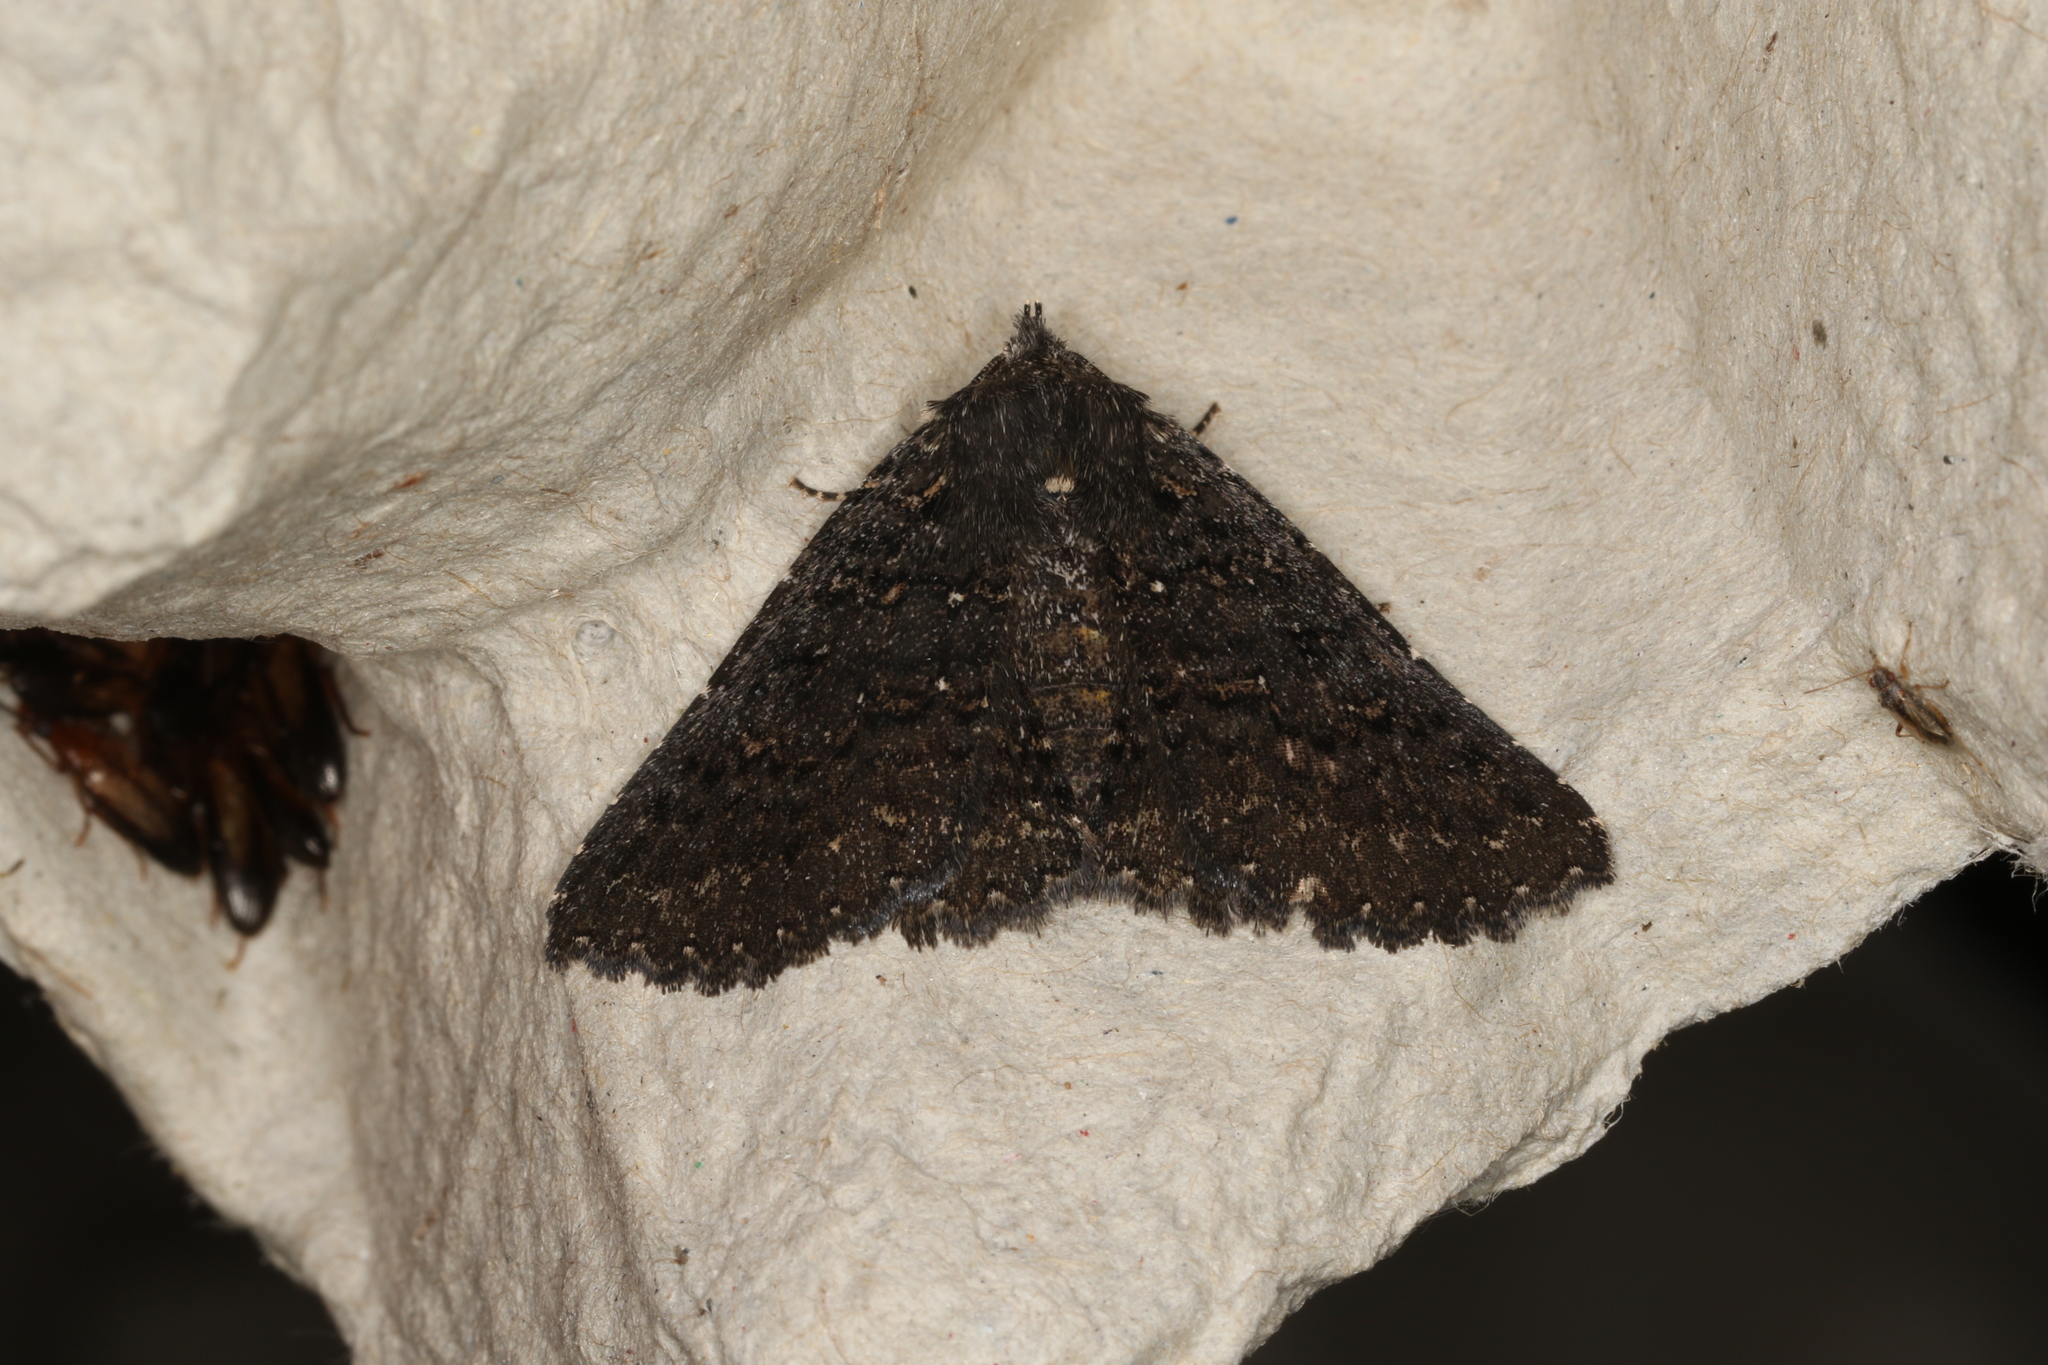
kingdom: Animalia
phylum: Arthropoda
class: Insecta
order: Lepidoptera
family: Erebidae
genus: Praxis
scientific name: Praxis edwardsii
